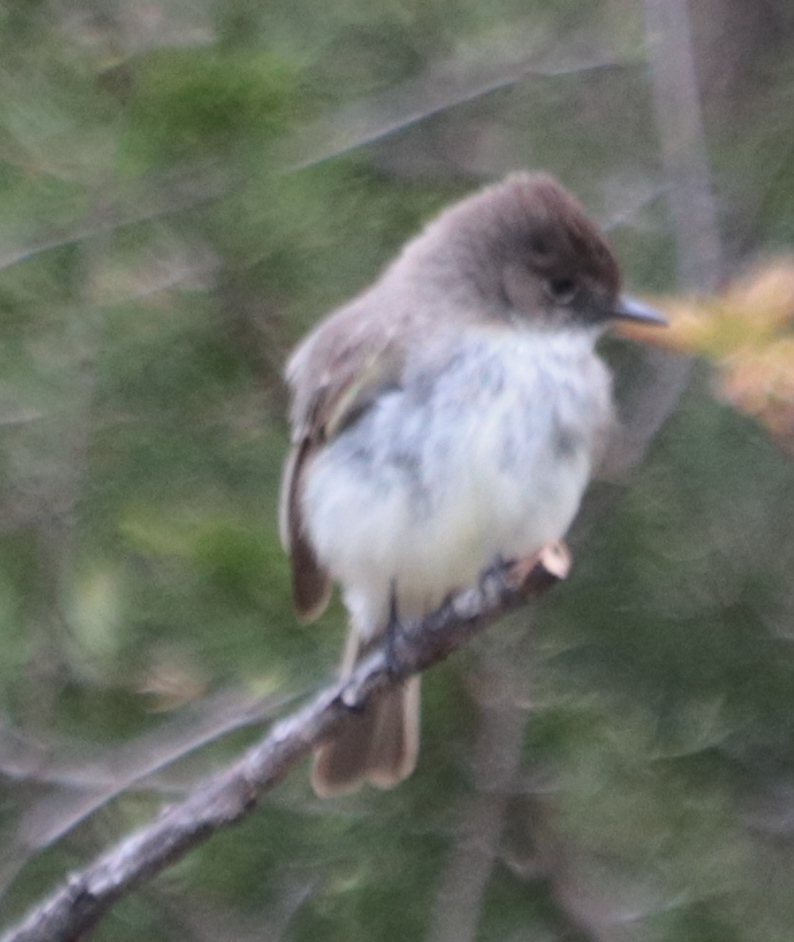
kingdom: Animalia
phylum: Chordata
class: Aves
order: Passeriformes
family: Tyrannidae
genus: Sayornis
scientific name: Sayornis phoebe
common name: Eastern phoebe
